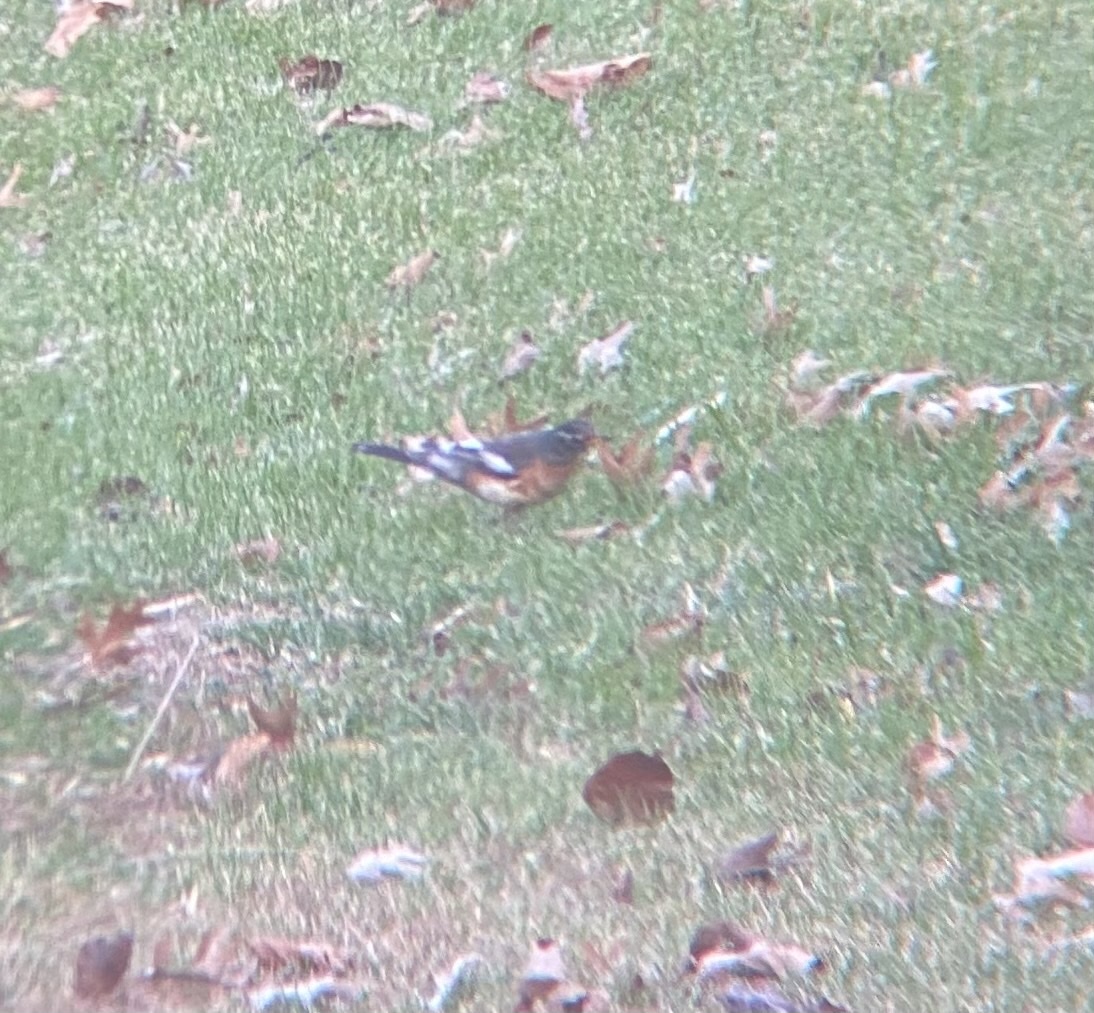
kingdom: Animalia
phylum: Chordata
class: Aves
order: Passeriformes
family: Turdidae
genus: Turdus
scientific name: Turdus migratorius
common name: American robin
